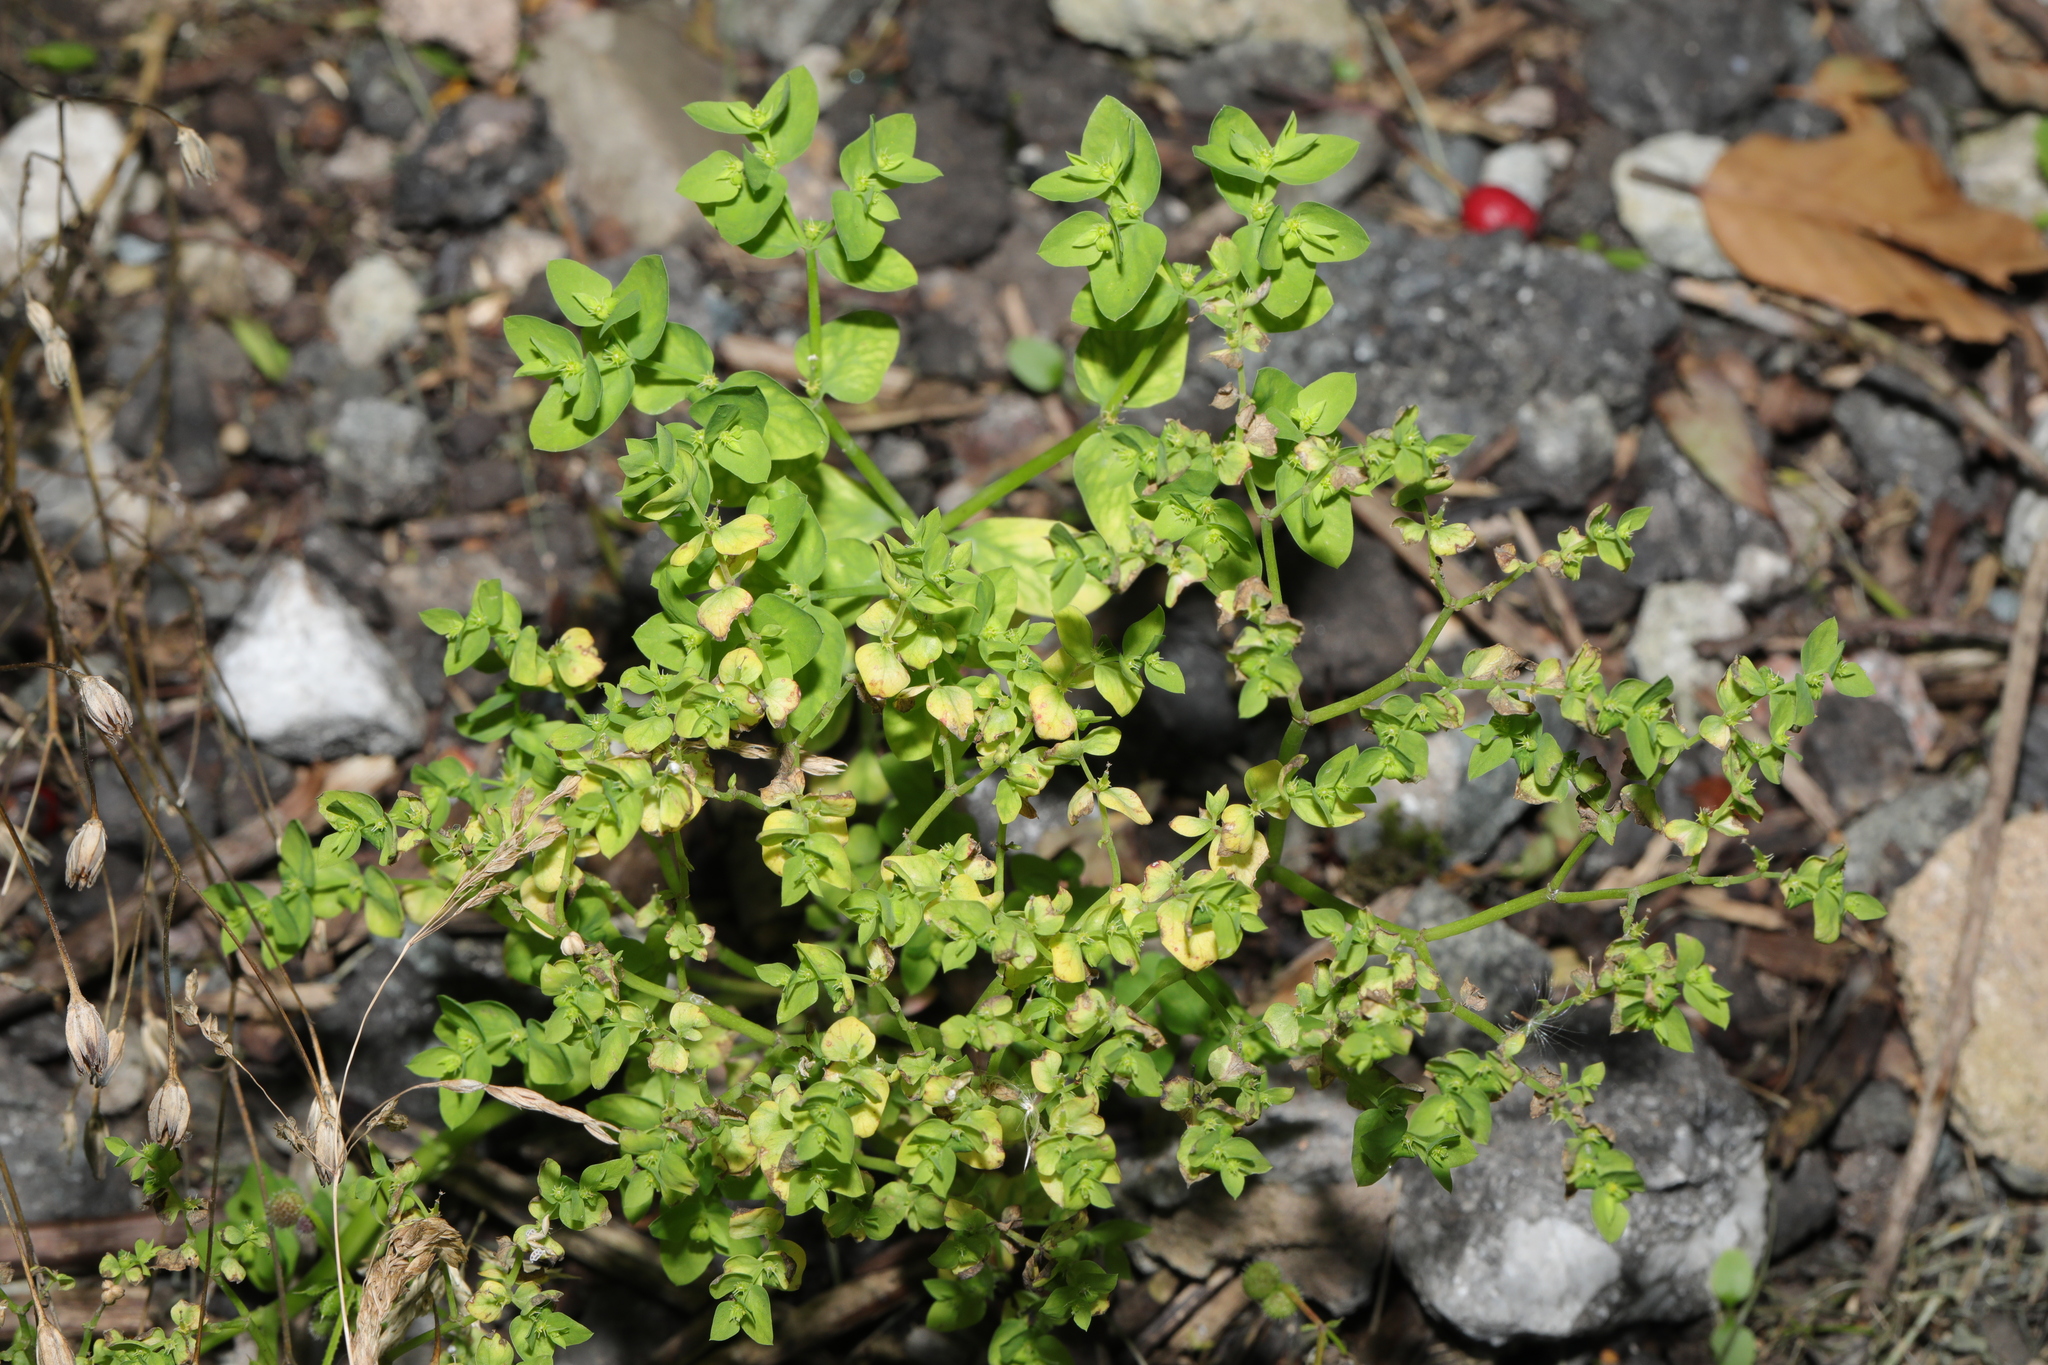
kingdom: Plantae
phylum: Tracheophyta
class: Magnoliopsida
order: Malpighiales
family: Euphorbiaceae
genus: Euphorbia
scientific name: Euphorbia peplus
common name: Petty spurge
